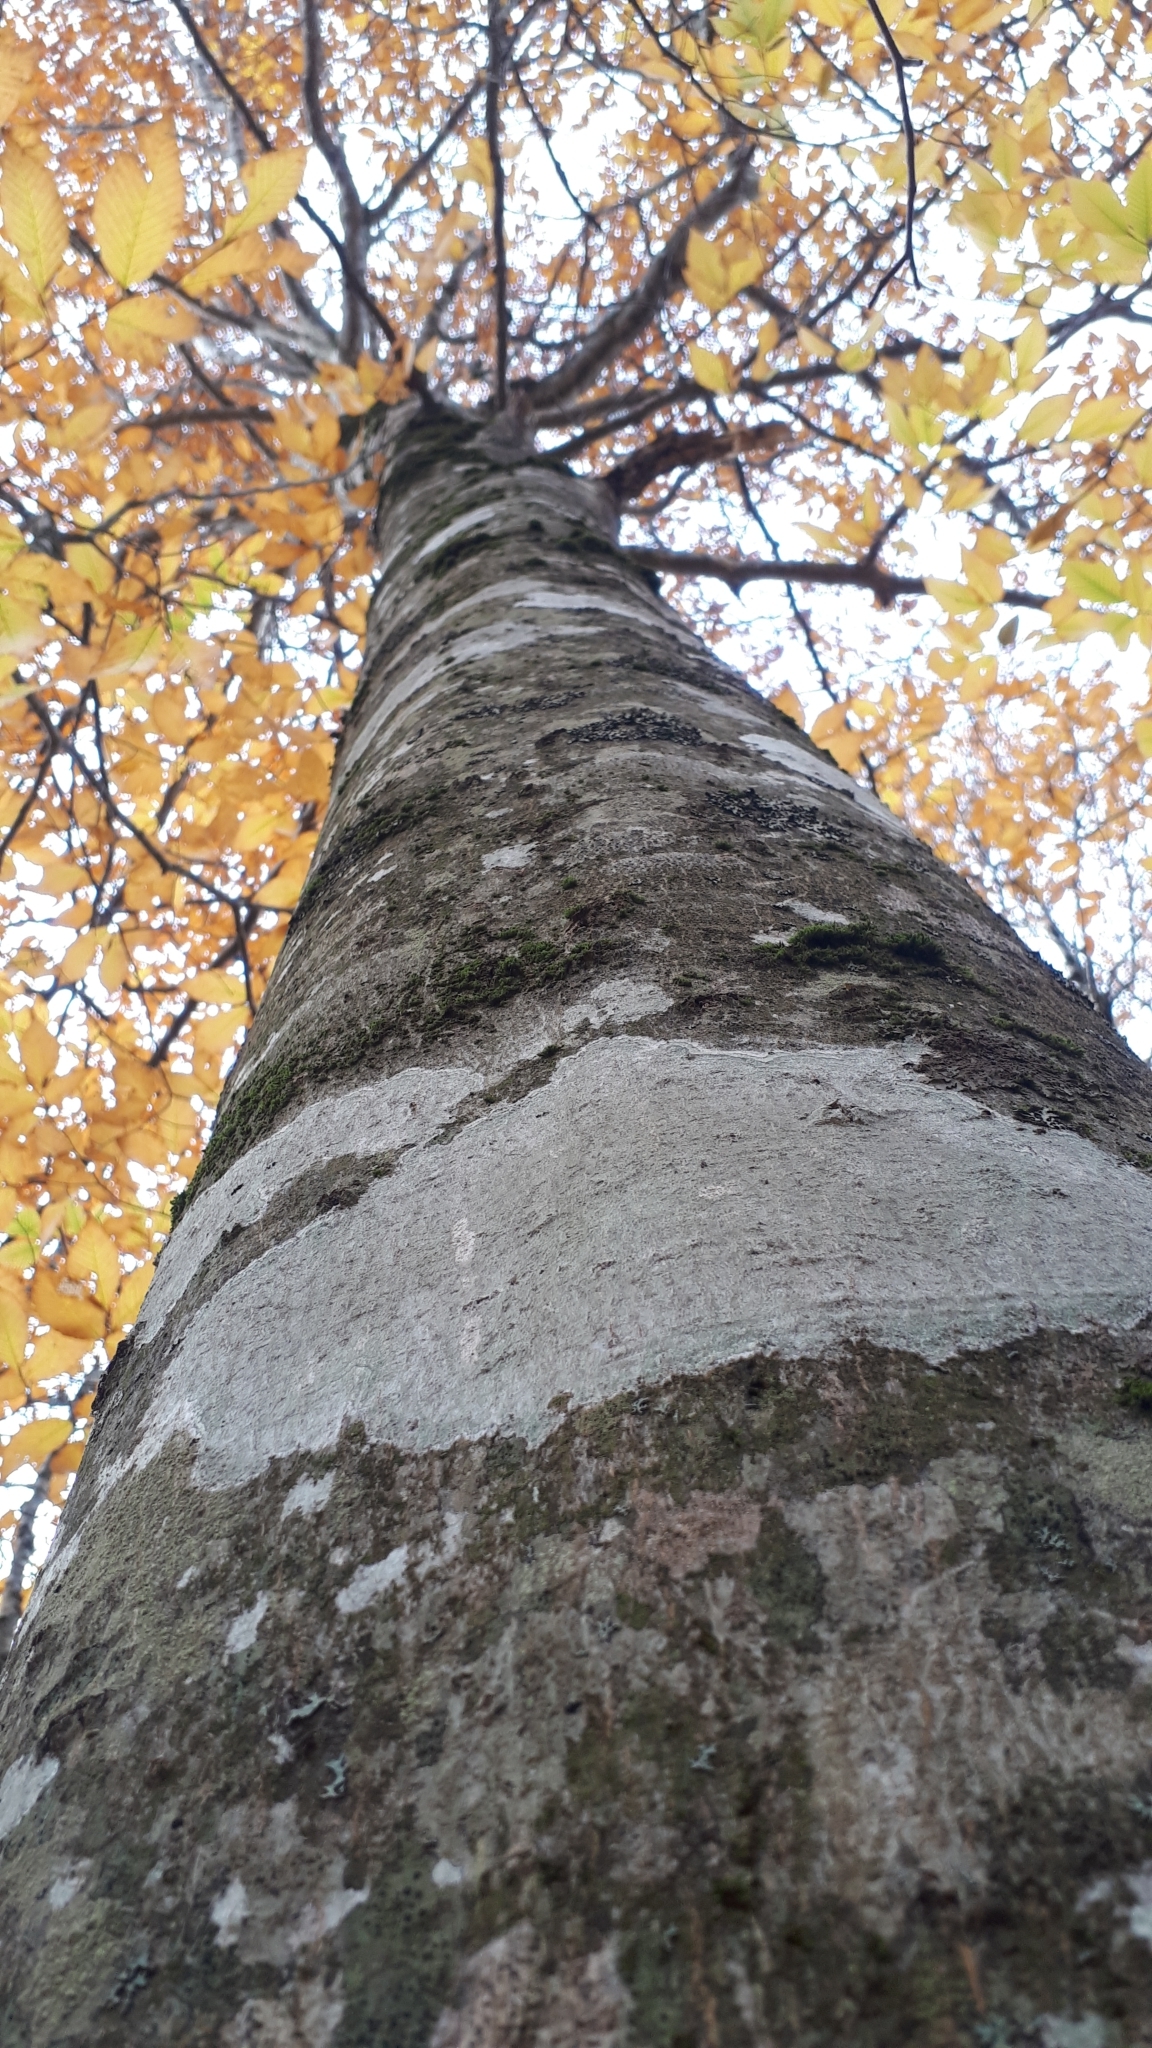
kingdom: Plantae
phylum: Tracheophyta
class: Magnoliopsida
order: Fagales
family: Fagaceae
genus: Fagus
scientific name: Fagus grandifolia
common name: American beech
